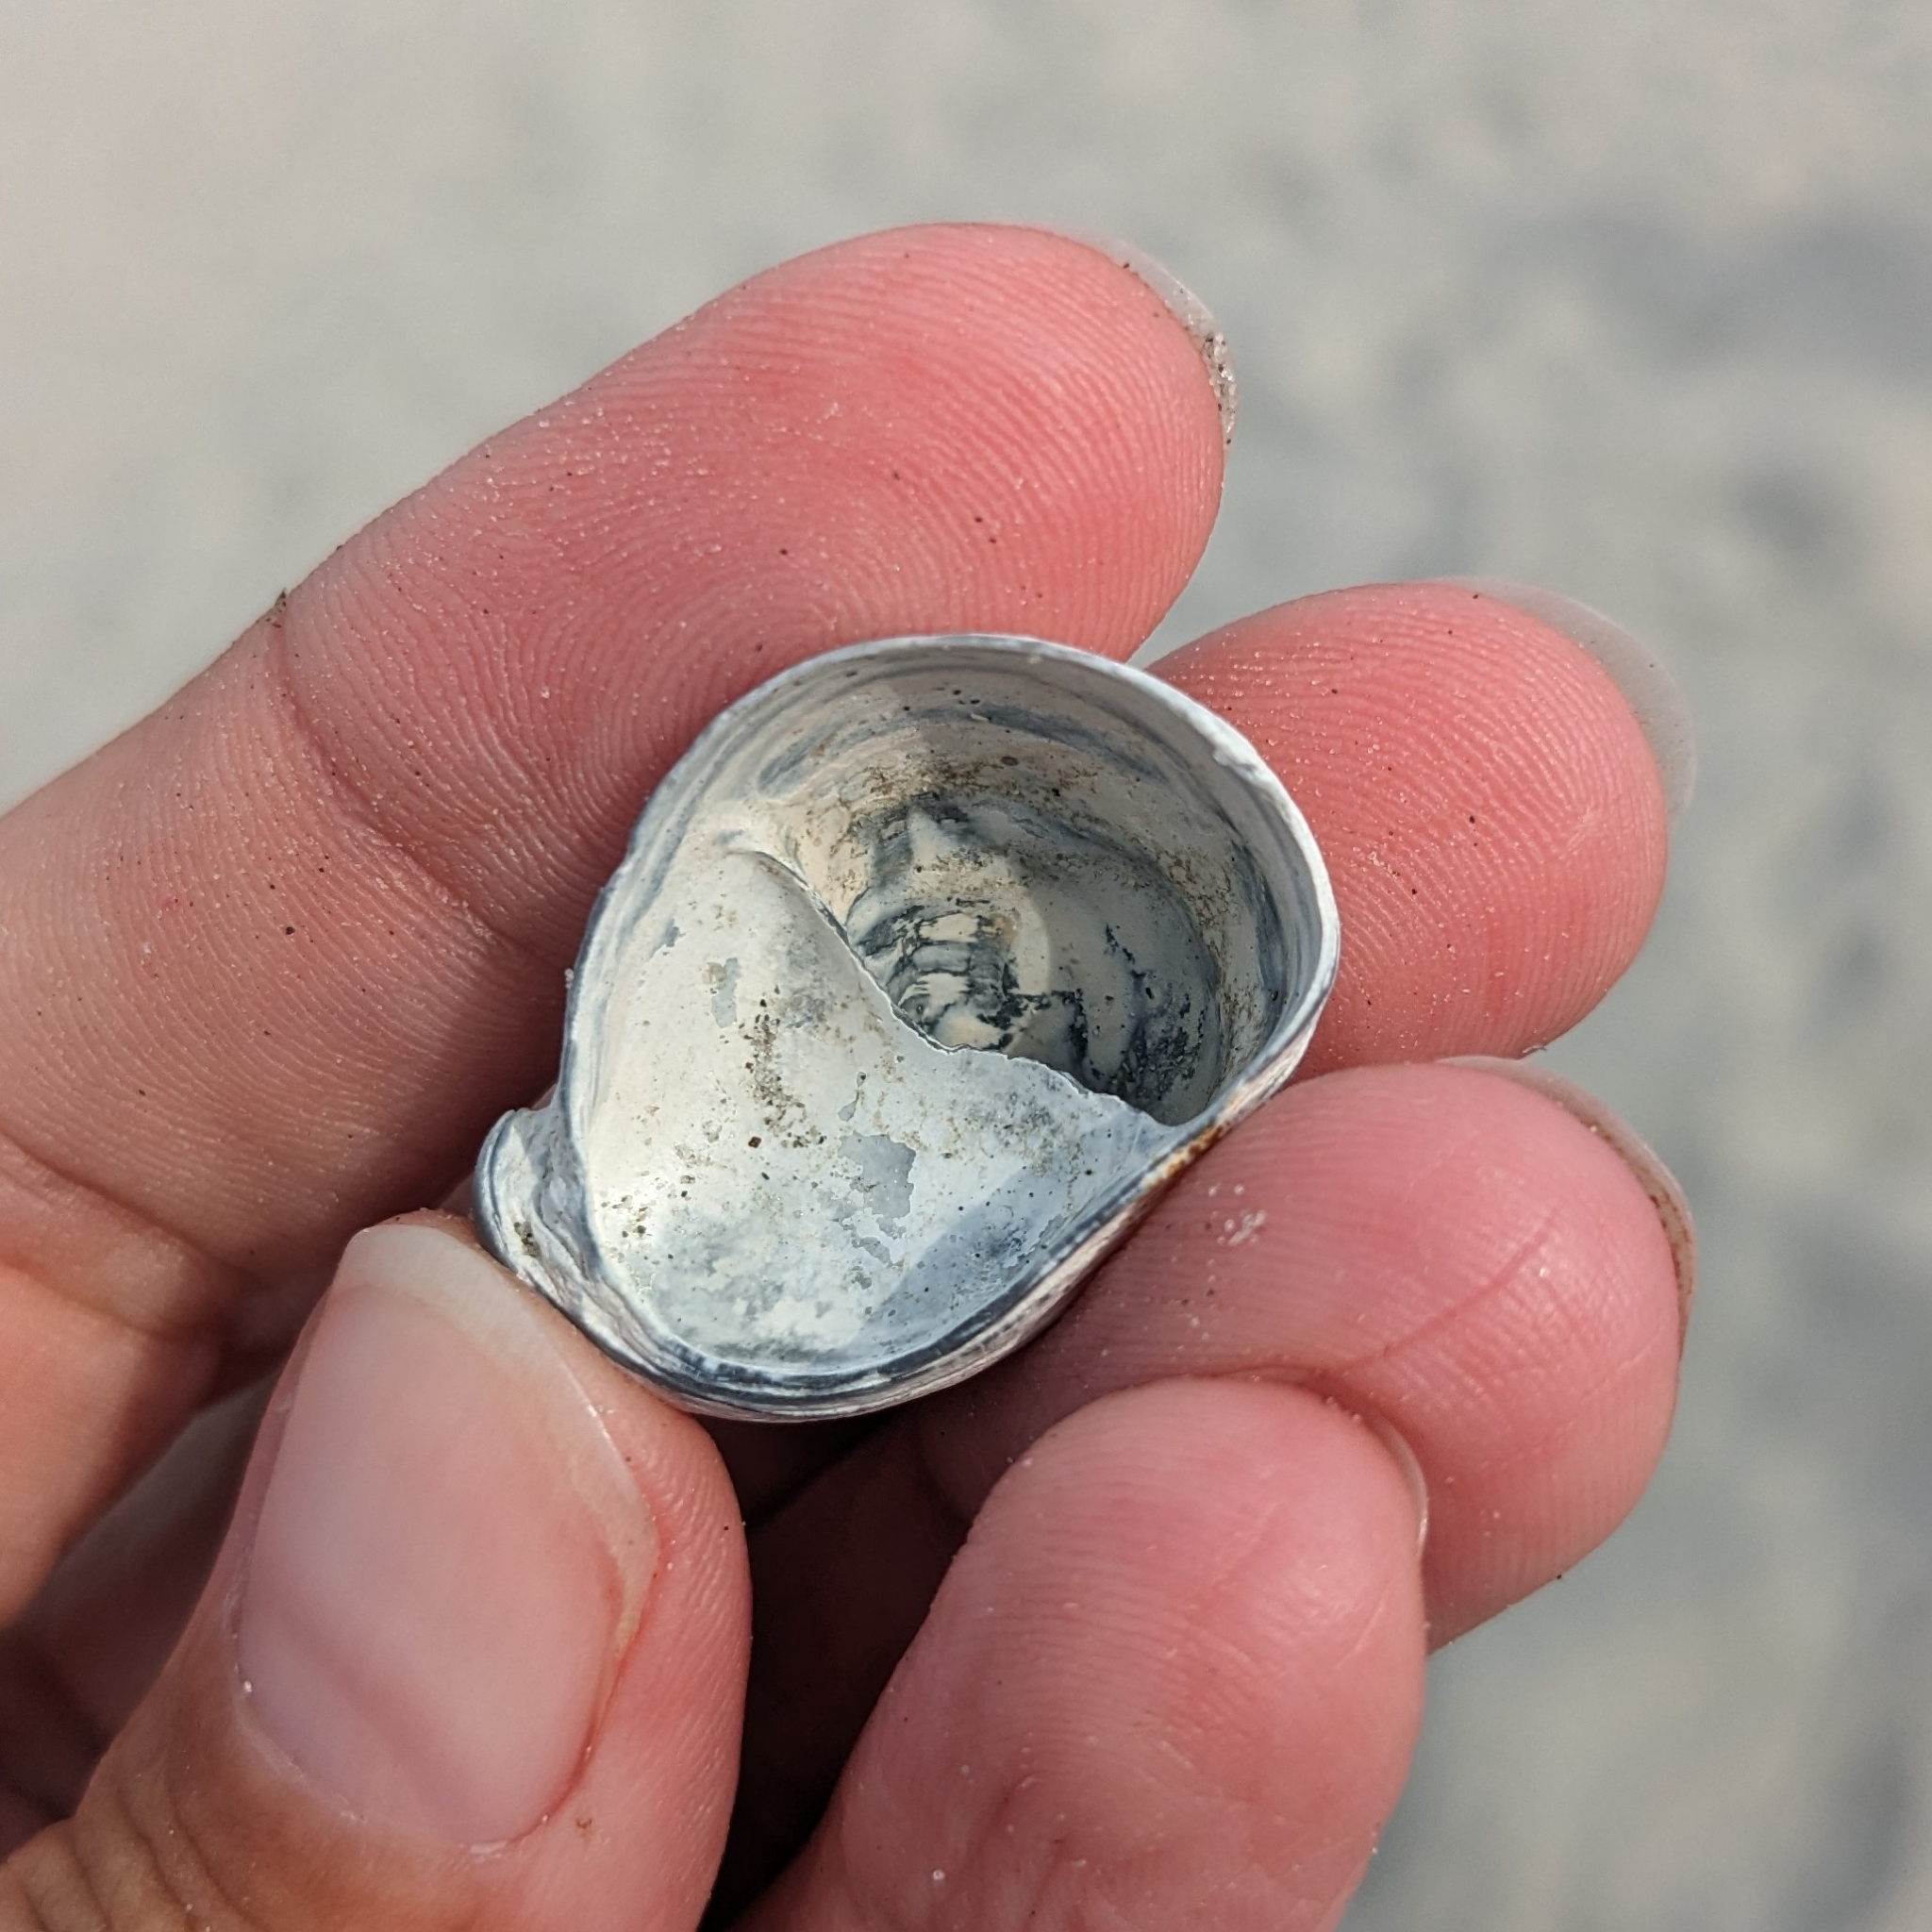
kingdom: Animalia
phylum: Mollusca
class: Gastropoda
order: Littorinimorpha
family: Calyptraeidae
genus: Crepidula
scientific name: Crepidula fornicata
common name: Slipper limpet
